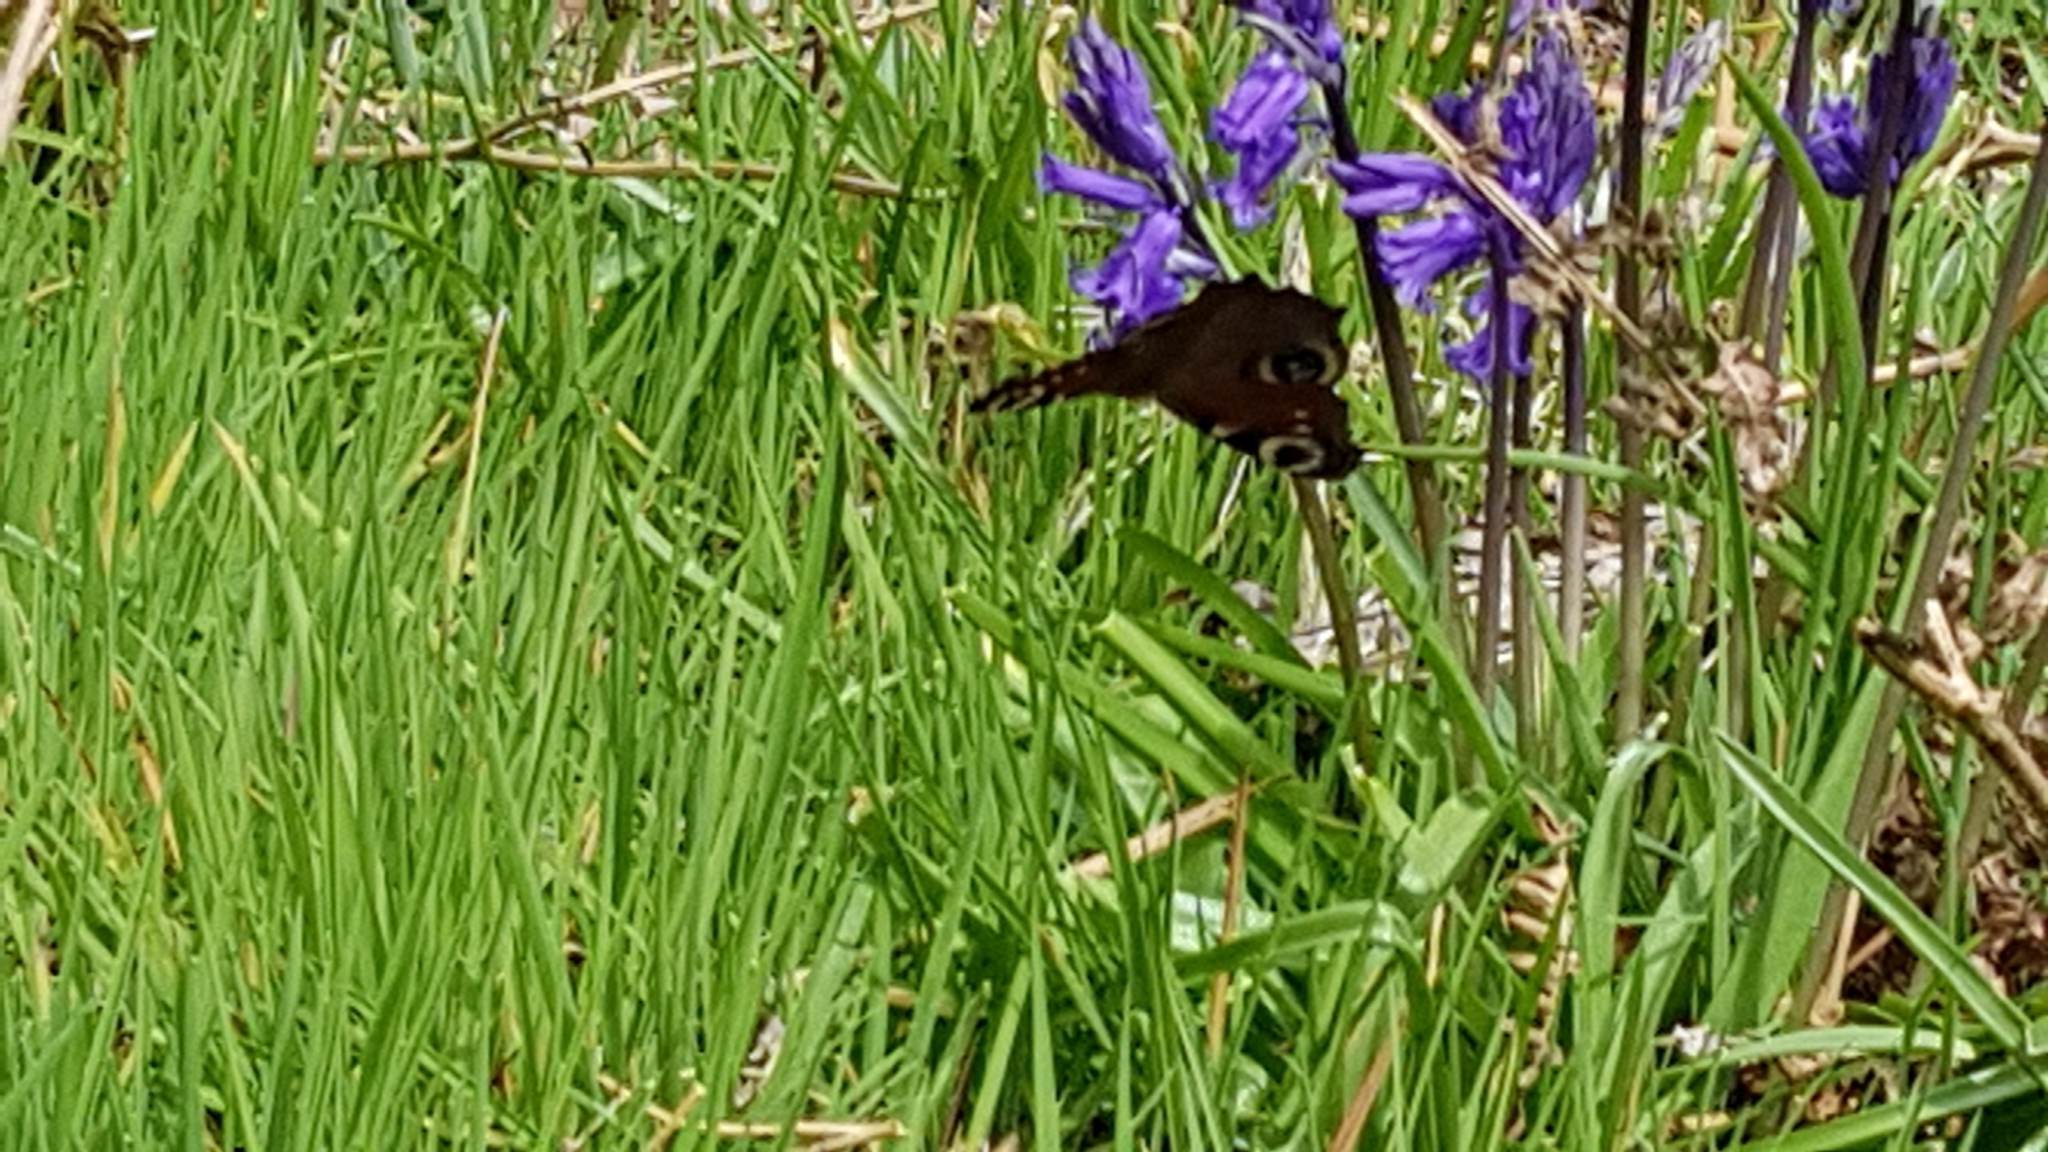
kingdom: Animalia
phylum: Arthropoda
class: Insecta
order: Lepidoptera
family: Nymphalidae
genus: Aglais
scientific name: Aglais io
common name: Peacock
